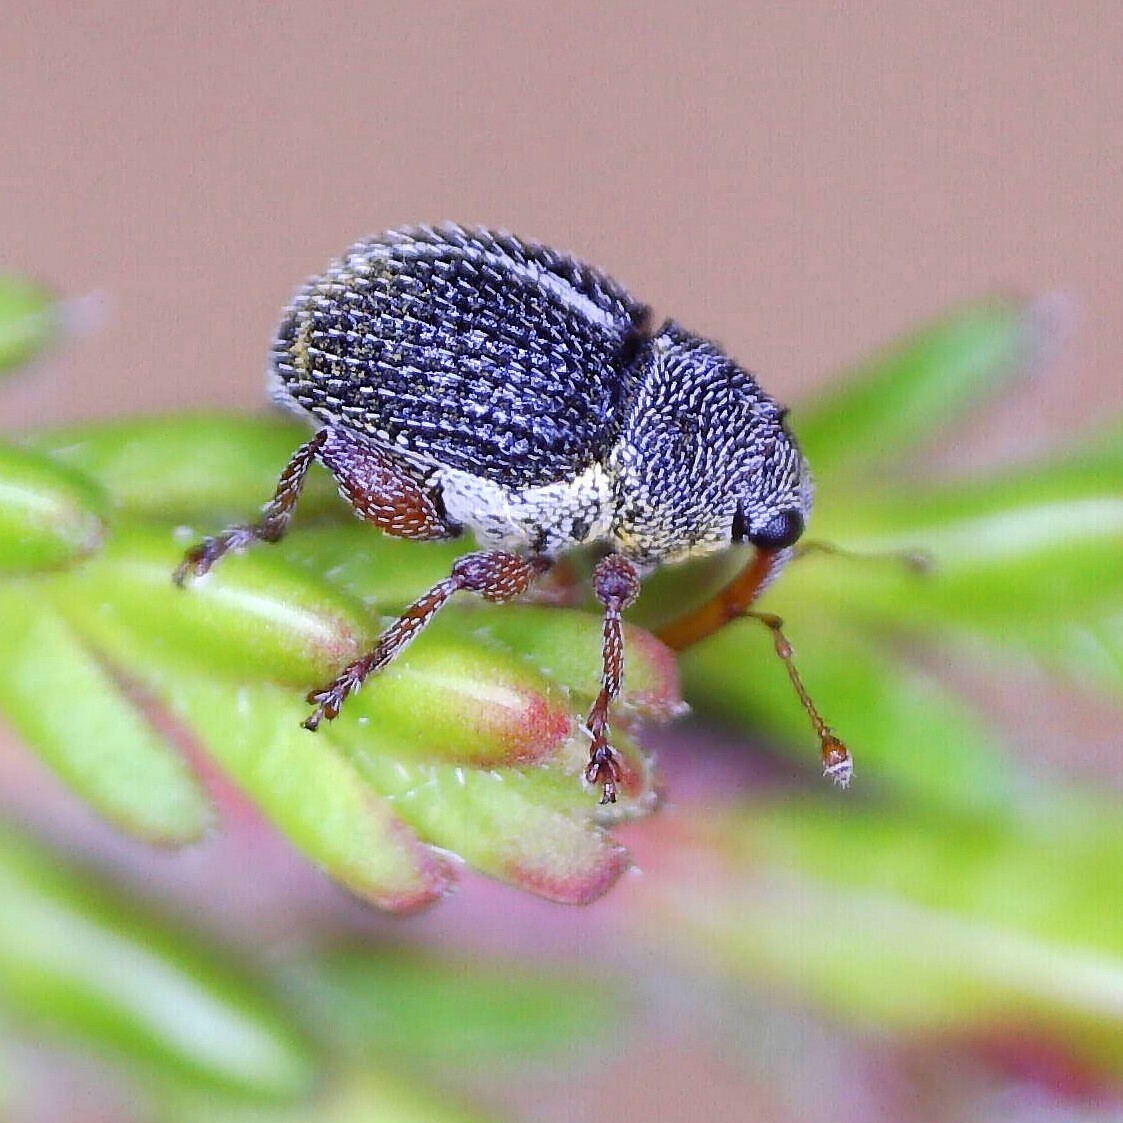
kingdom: Animalia
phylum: Arthropoda
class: Insecta
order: Coleoptera
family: Curculionidae
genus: Micrelus
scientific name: Micrelus ericae
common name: Small heather weevil
